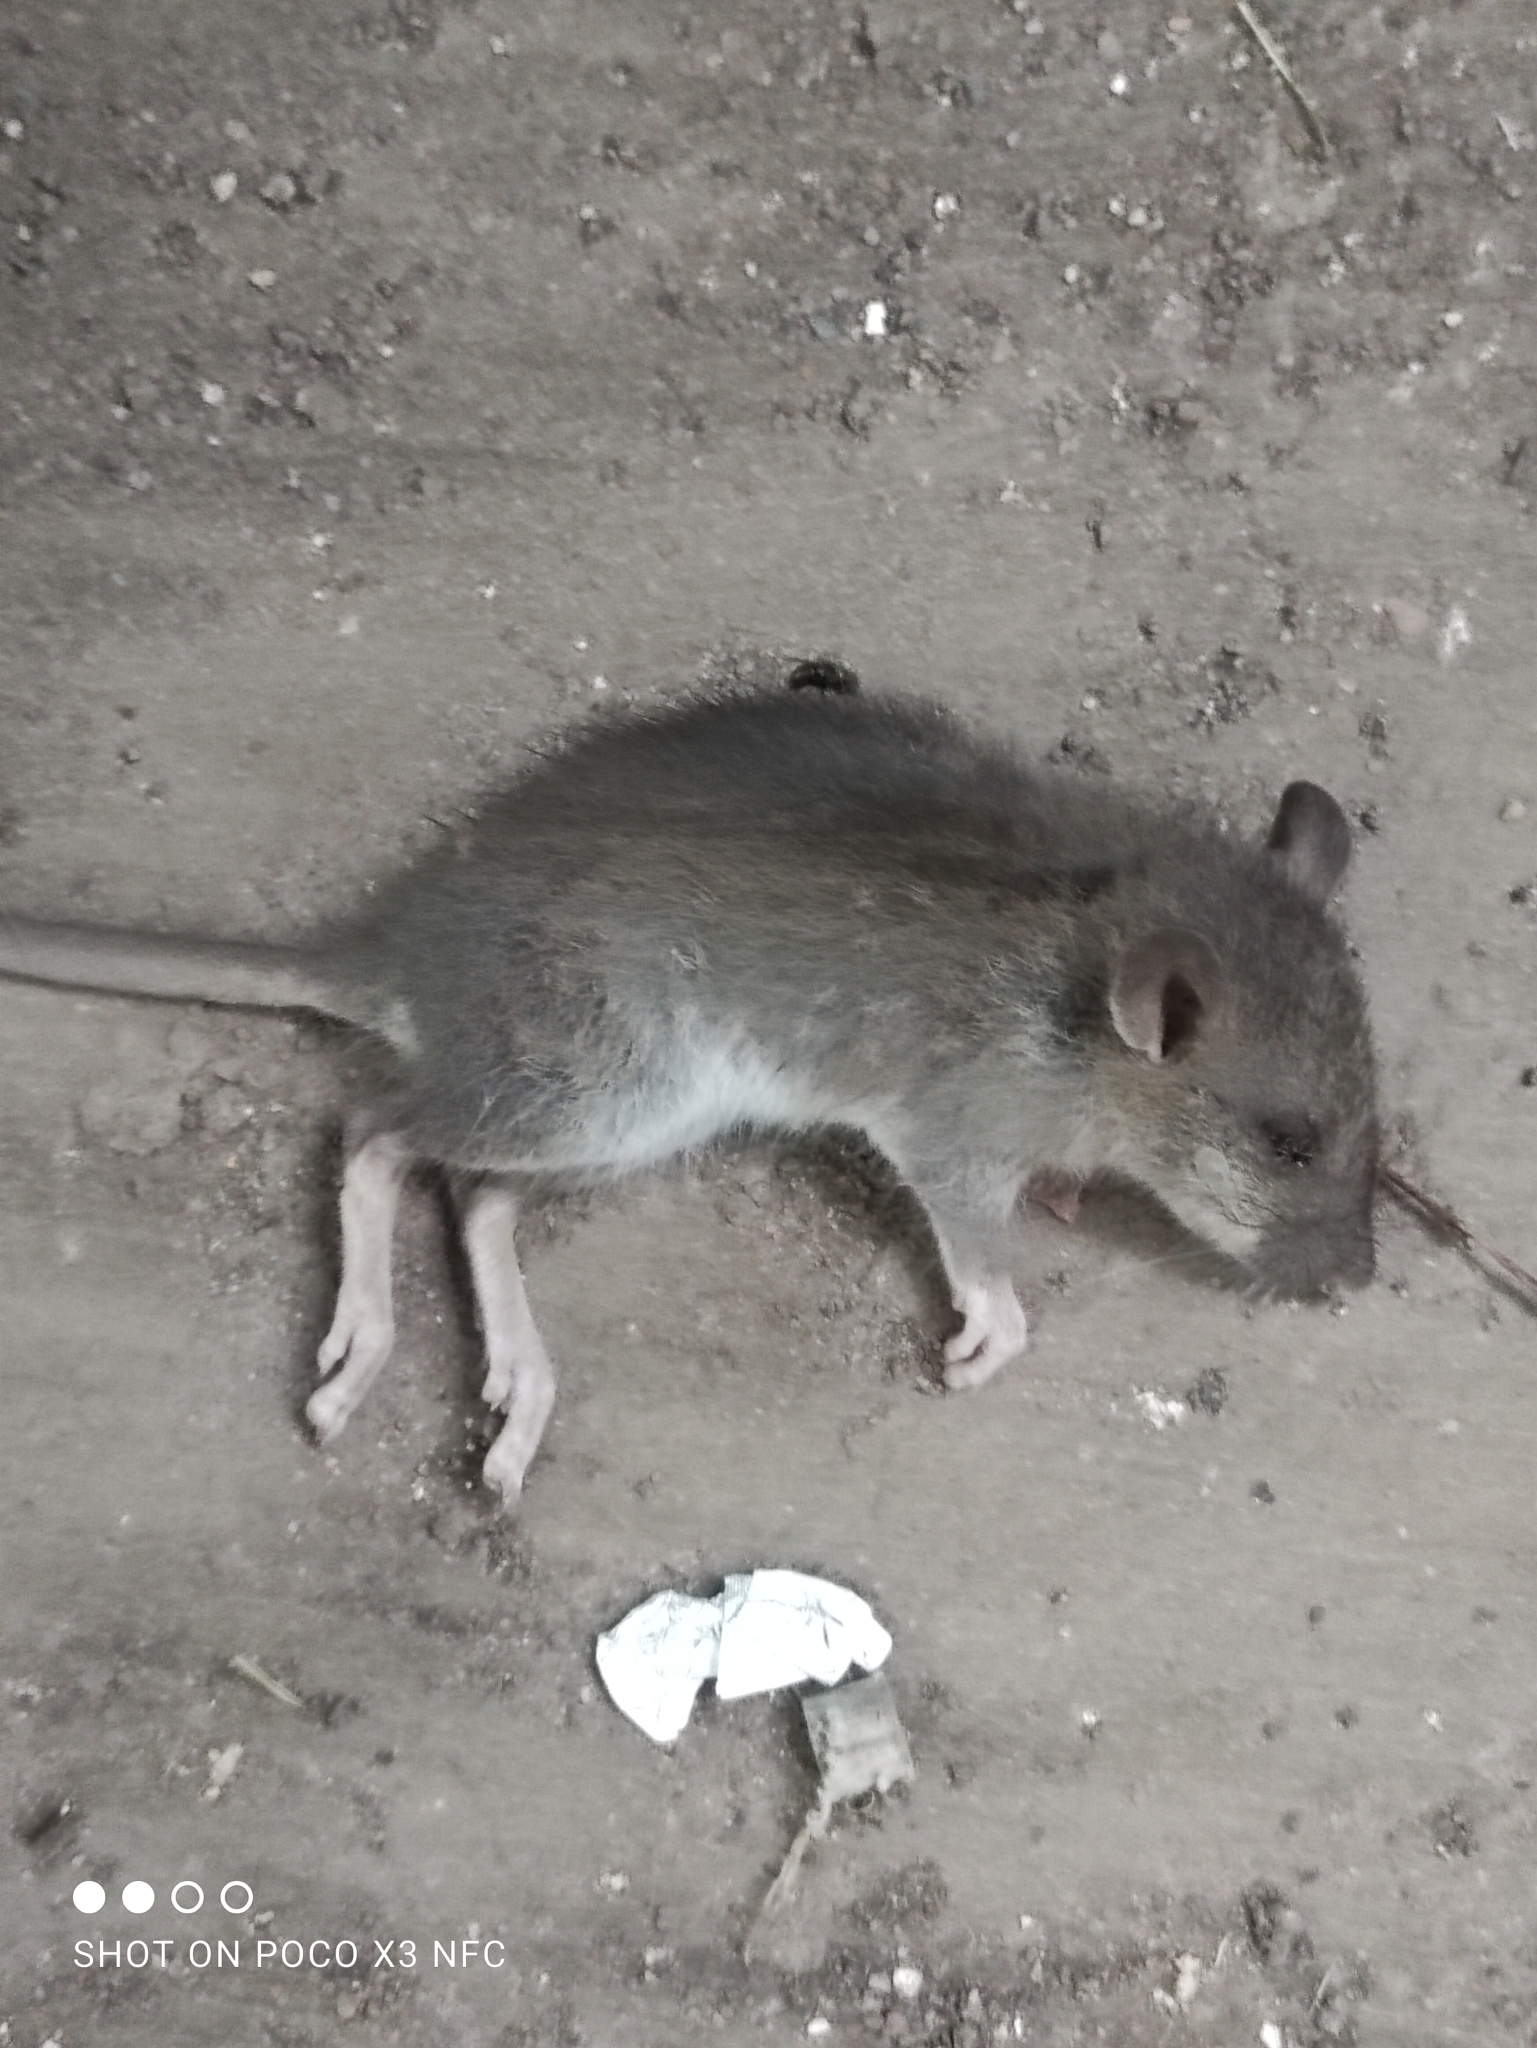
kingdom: Animalia
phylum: Chordata
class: Mammalia
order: Rodentia
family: Muridae
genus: Rattus
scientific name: Rattus norvegicus
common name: Brown rat
